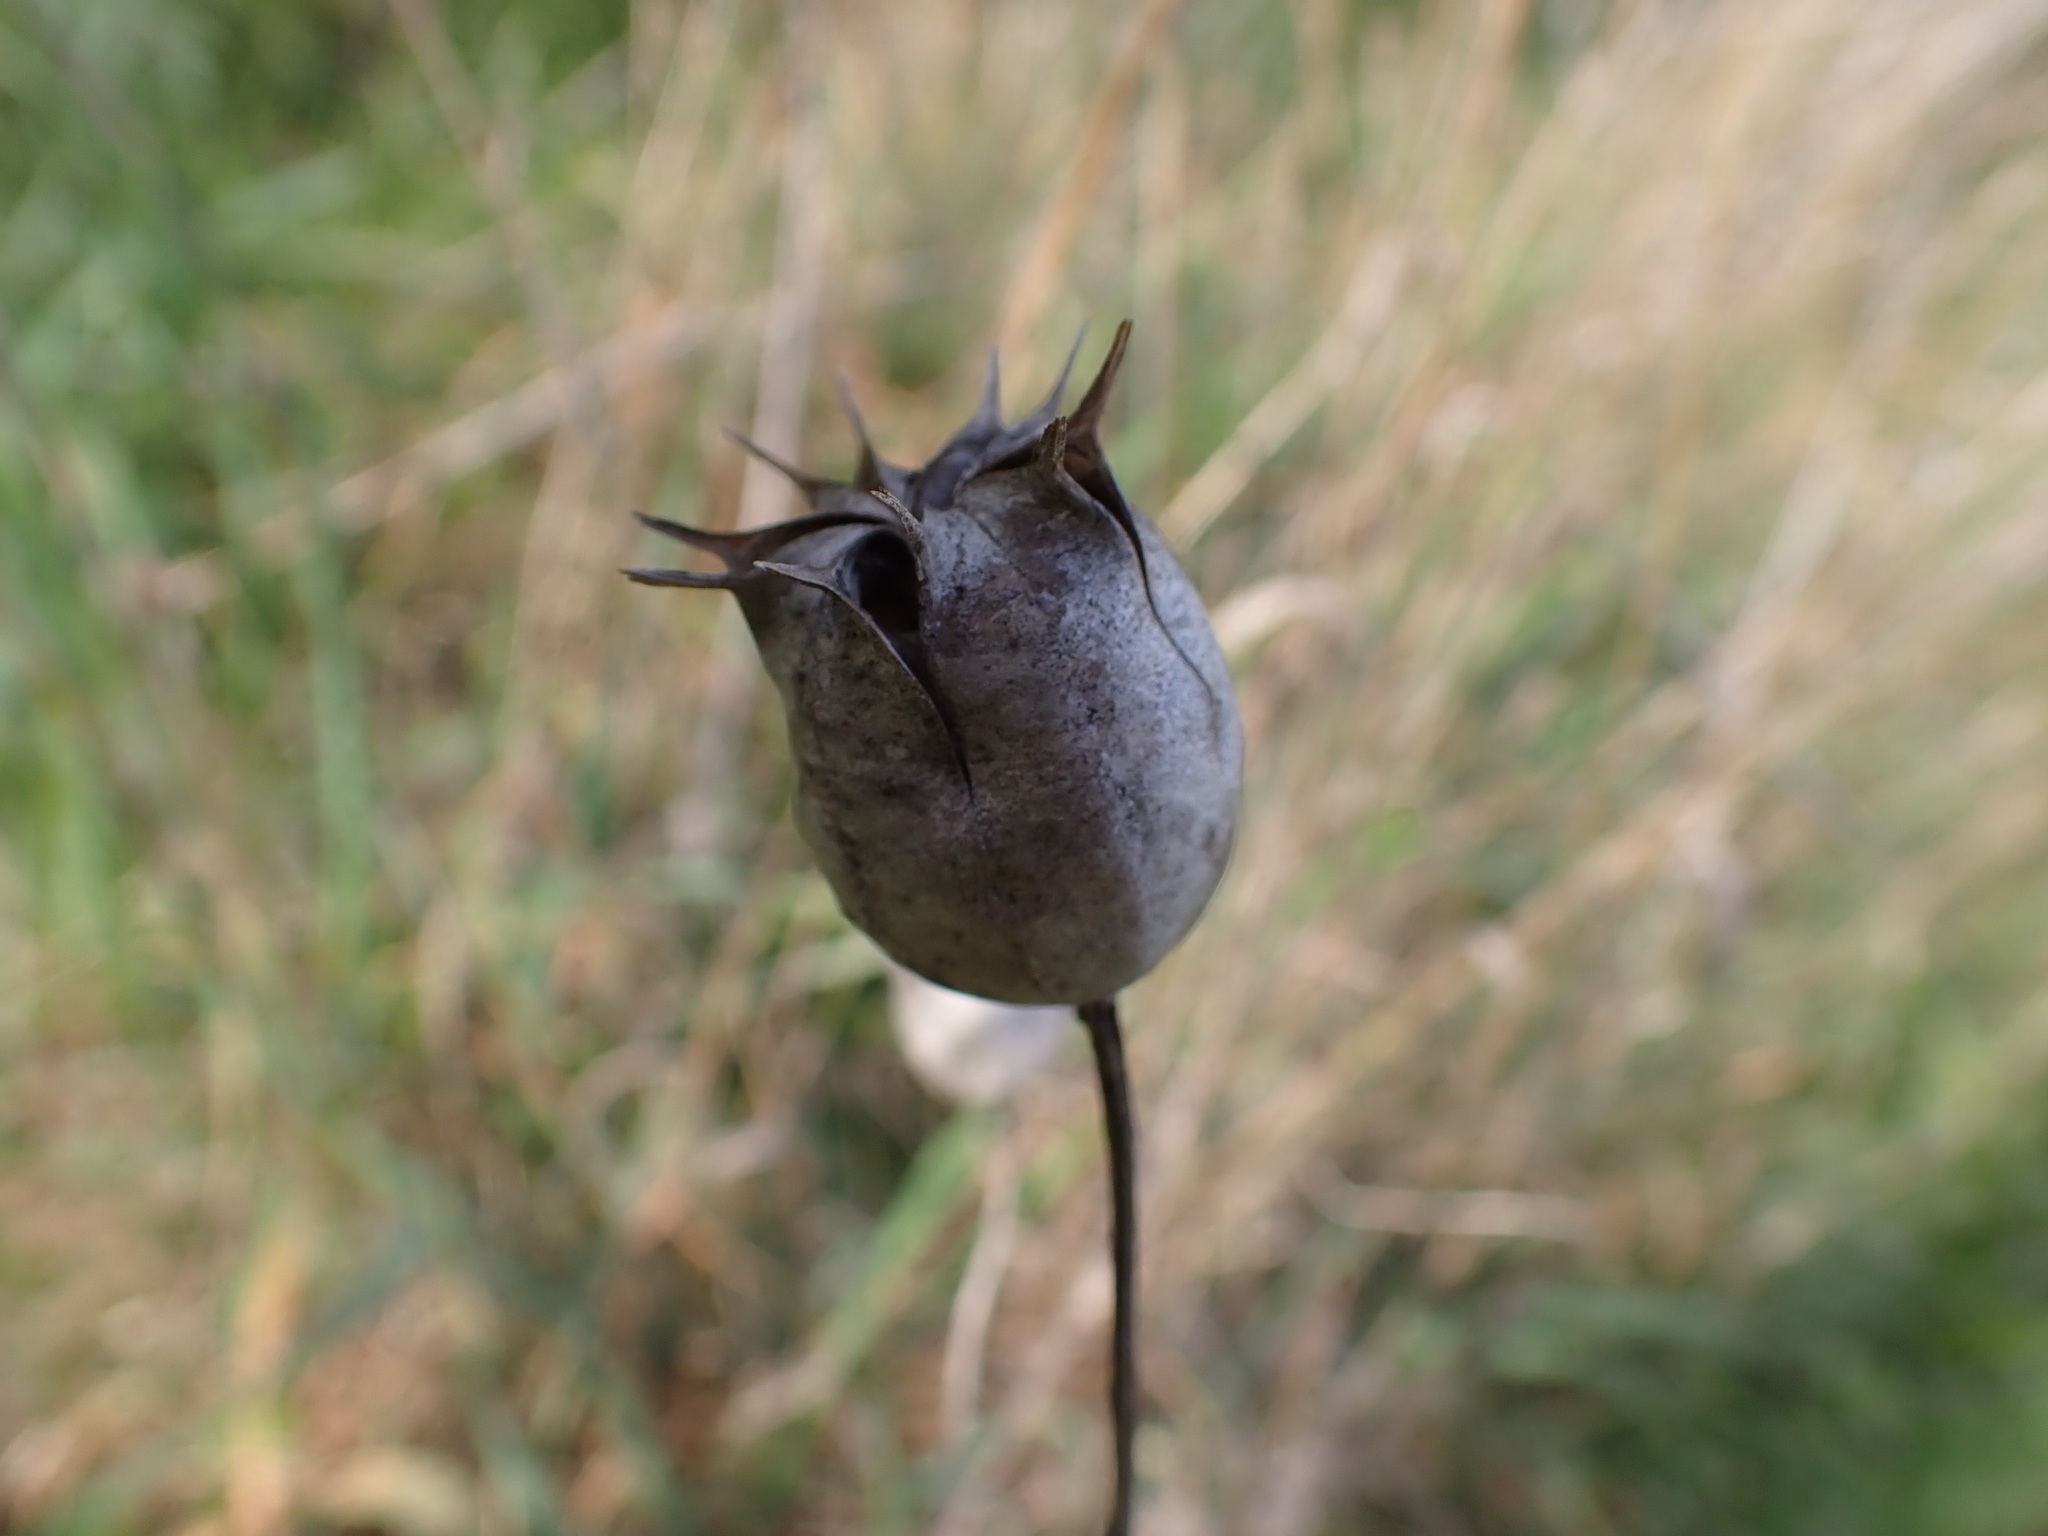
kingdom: Plantae
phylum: Tracheophyta
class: Magnoliopsida
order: Ranunculales
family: Ranunculaceae
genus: Nigella
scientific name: Nigella damascena
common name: Love-in-a-mist
